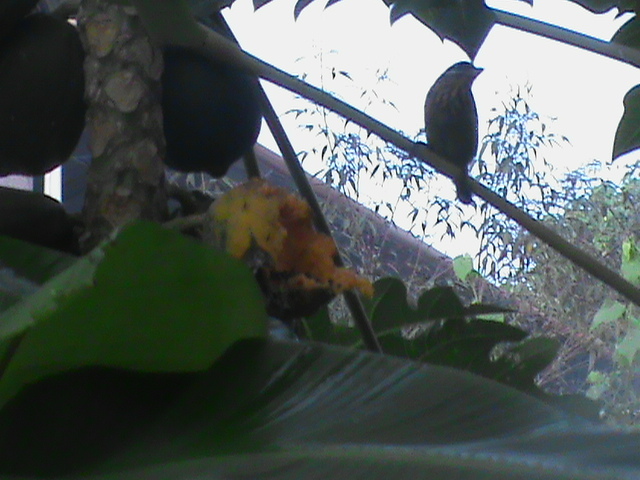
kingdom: Animalia
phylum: Chordata
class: Aves
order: Piciformes
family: Megalaimidae
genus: Psilopogon
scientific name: Psilopogon viridis
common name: White-cheeked barbet
